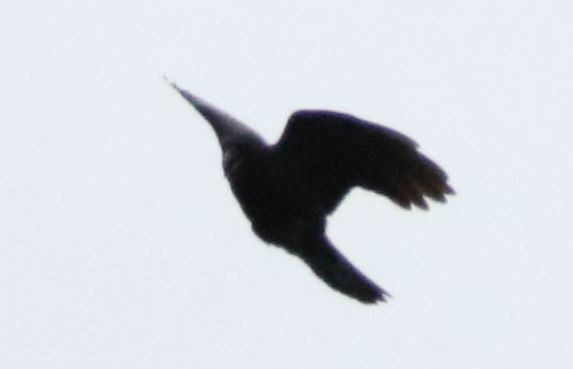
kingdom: Animalia
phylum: Chordata
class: Aves
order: Passeriformes
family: Corvidae
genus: Corvus
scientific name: Corvus corone
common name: Carrion crow
